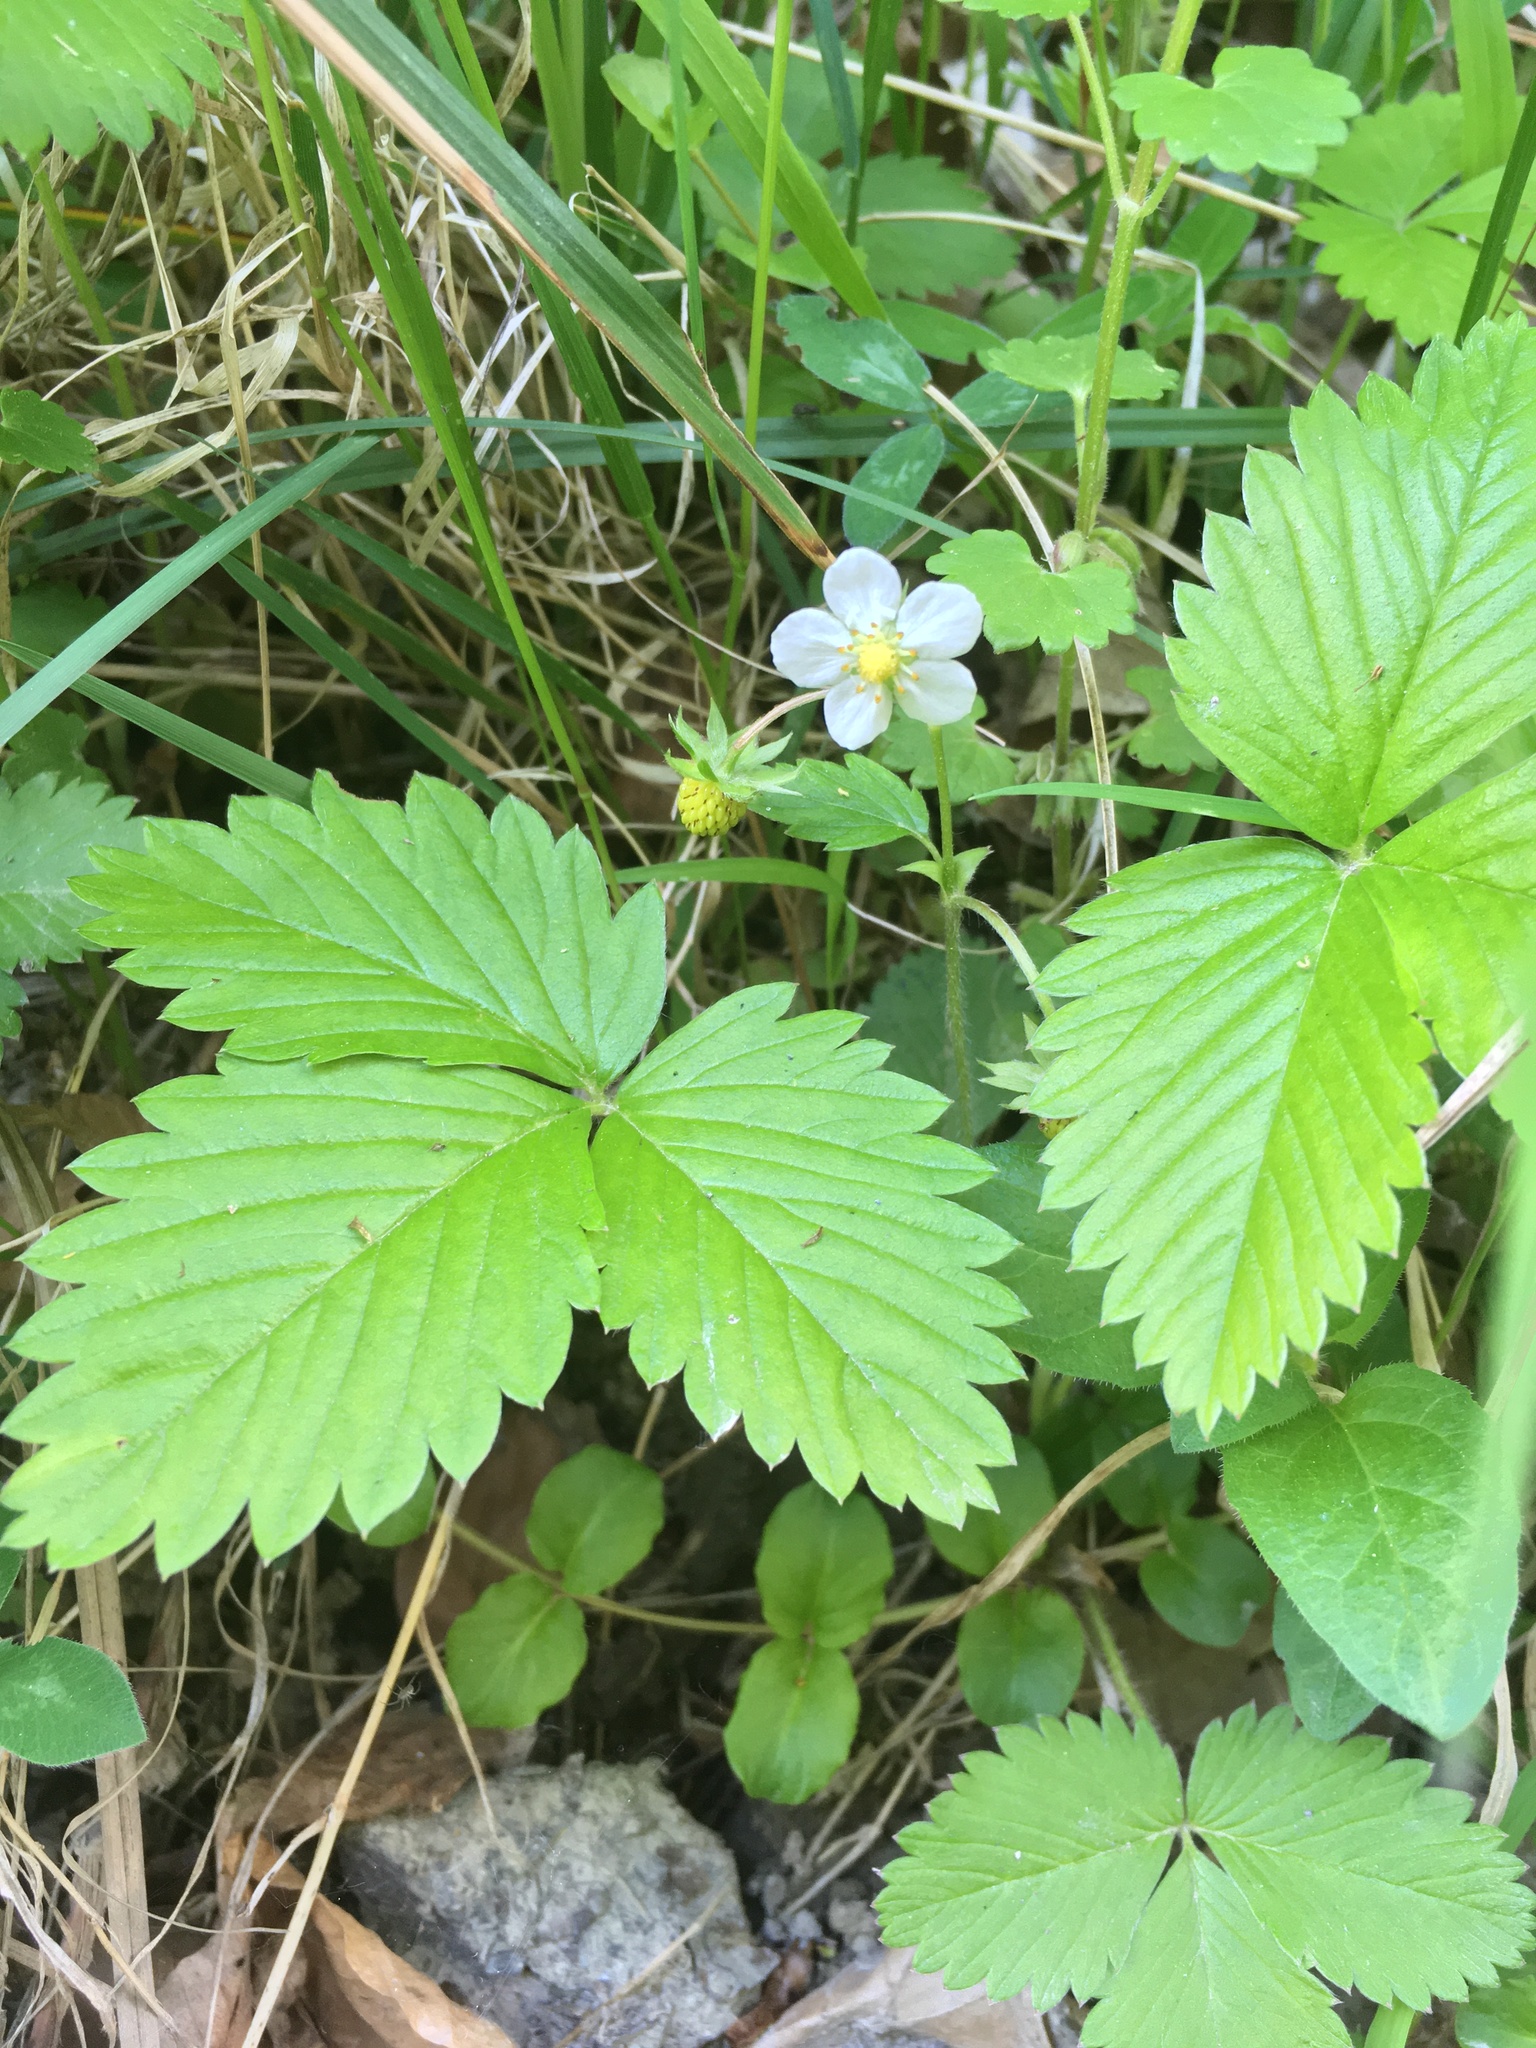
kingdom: Plantae
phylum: Tracheophyta
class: Magnoliopsida
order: Rosales
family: Rosaceae
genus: Fragaria
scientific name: Fragaria vesca
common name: Wild strawberry
